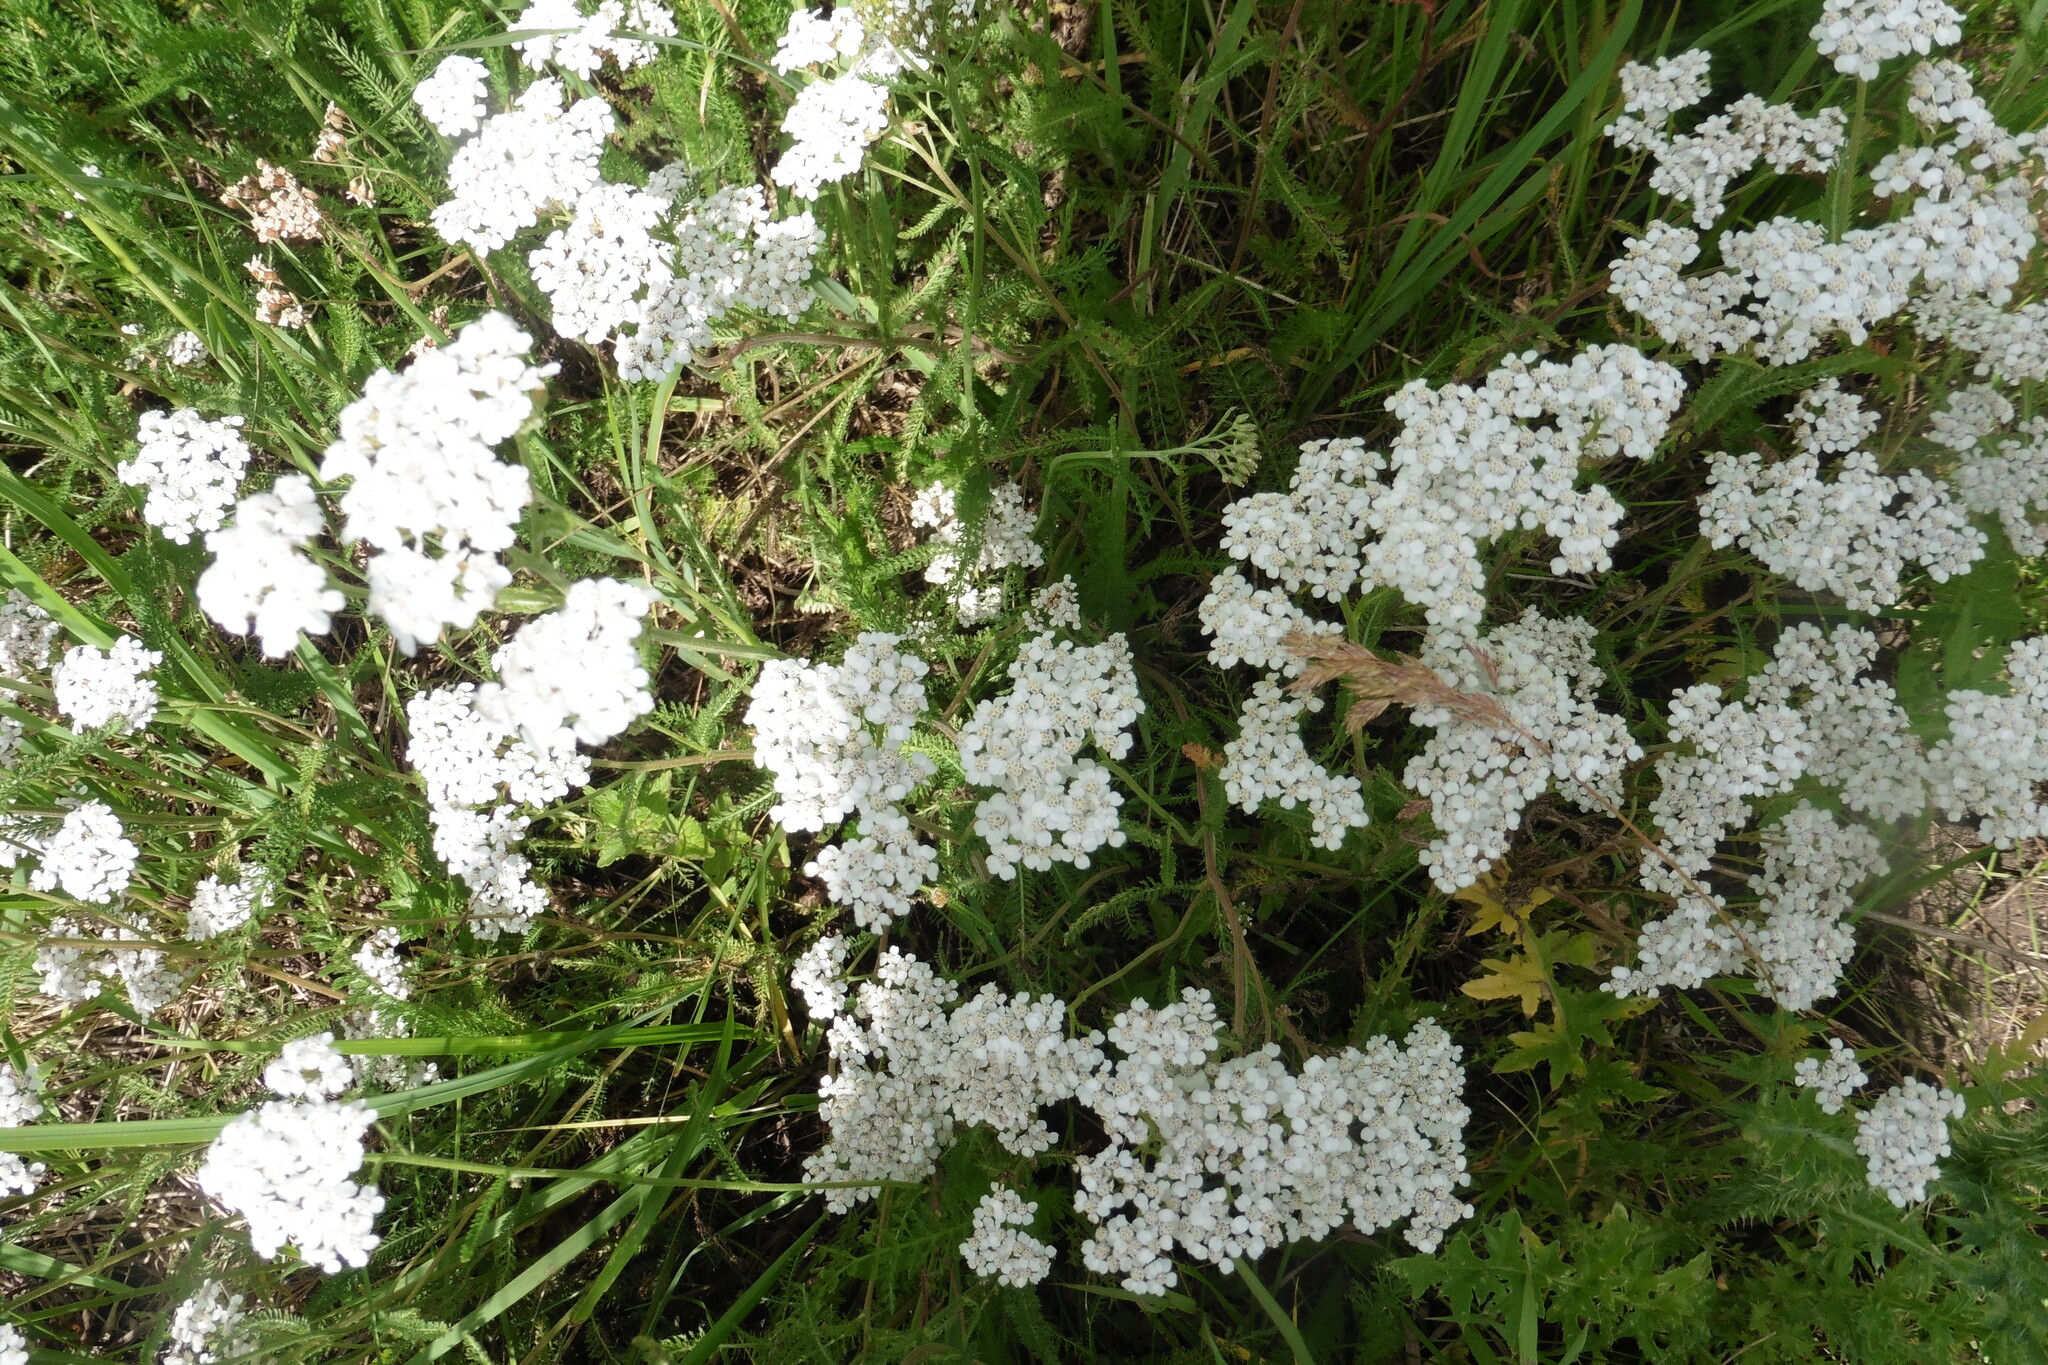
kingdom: Plantae
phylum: Tracheophyta
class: Magnoliopsida
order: Asterales
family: Asteraceae
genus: Achillea
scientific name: Achillea millefolium
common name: Yarrow
